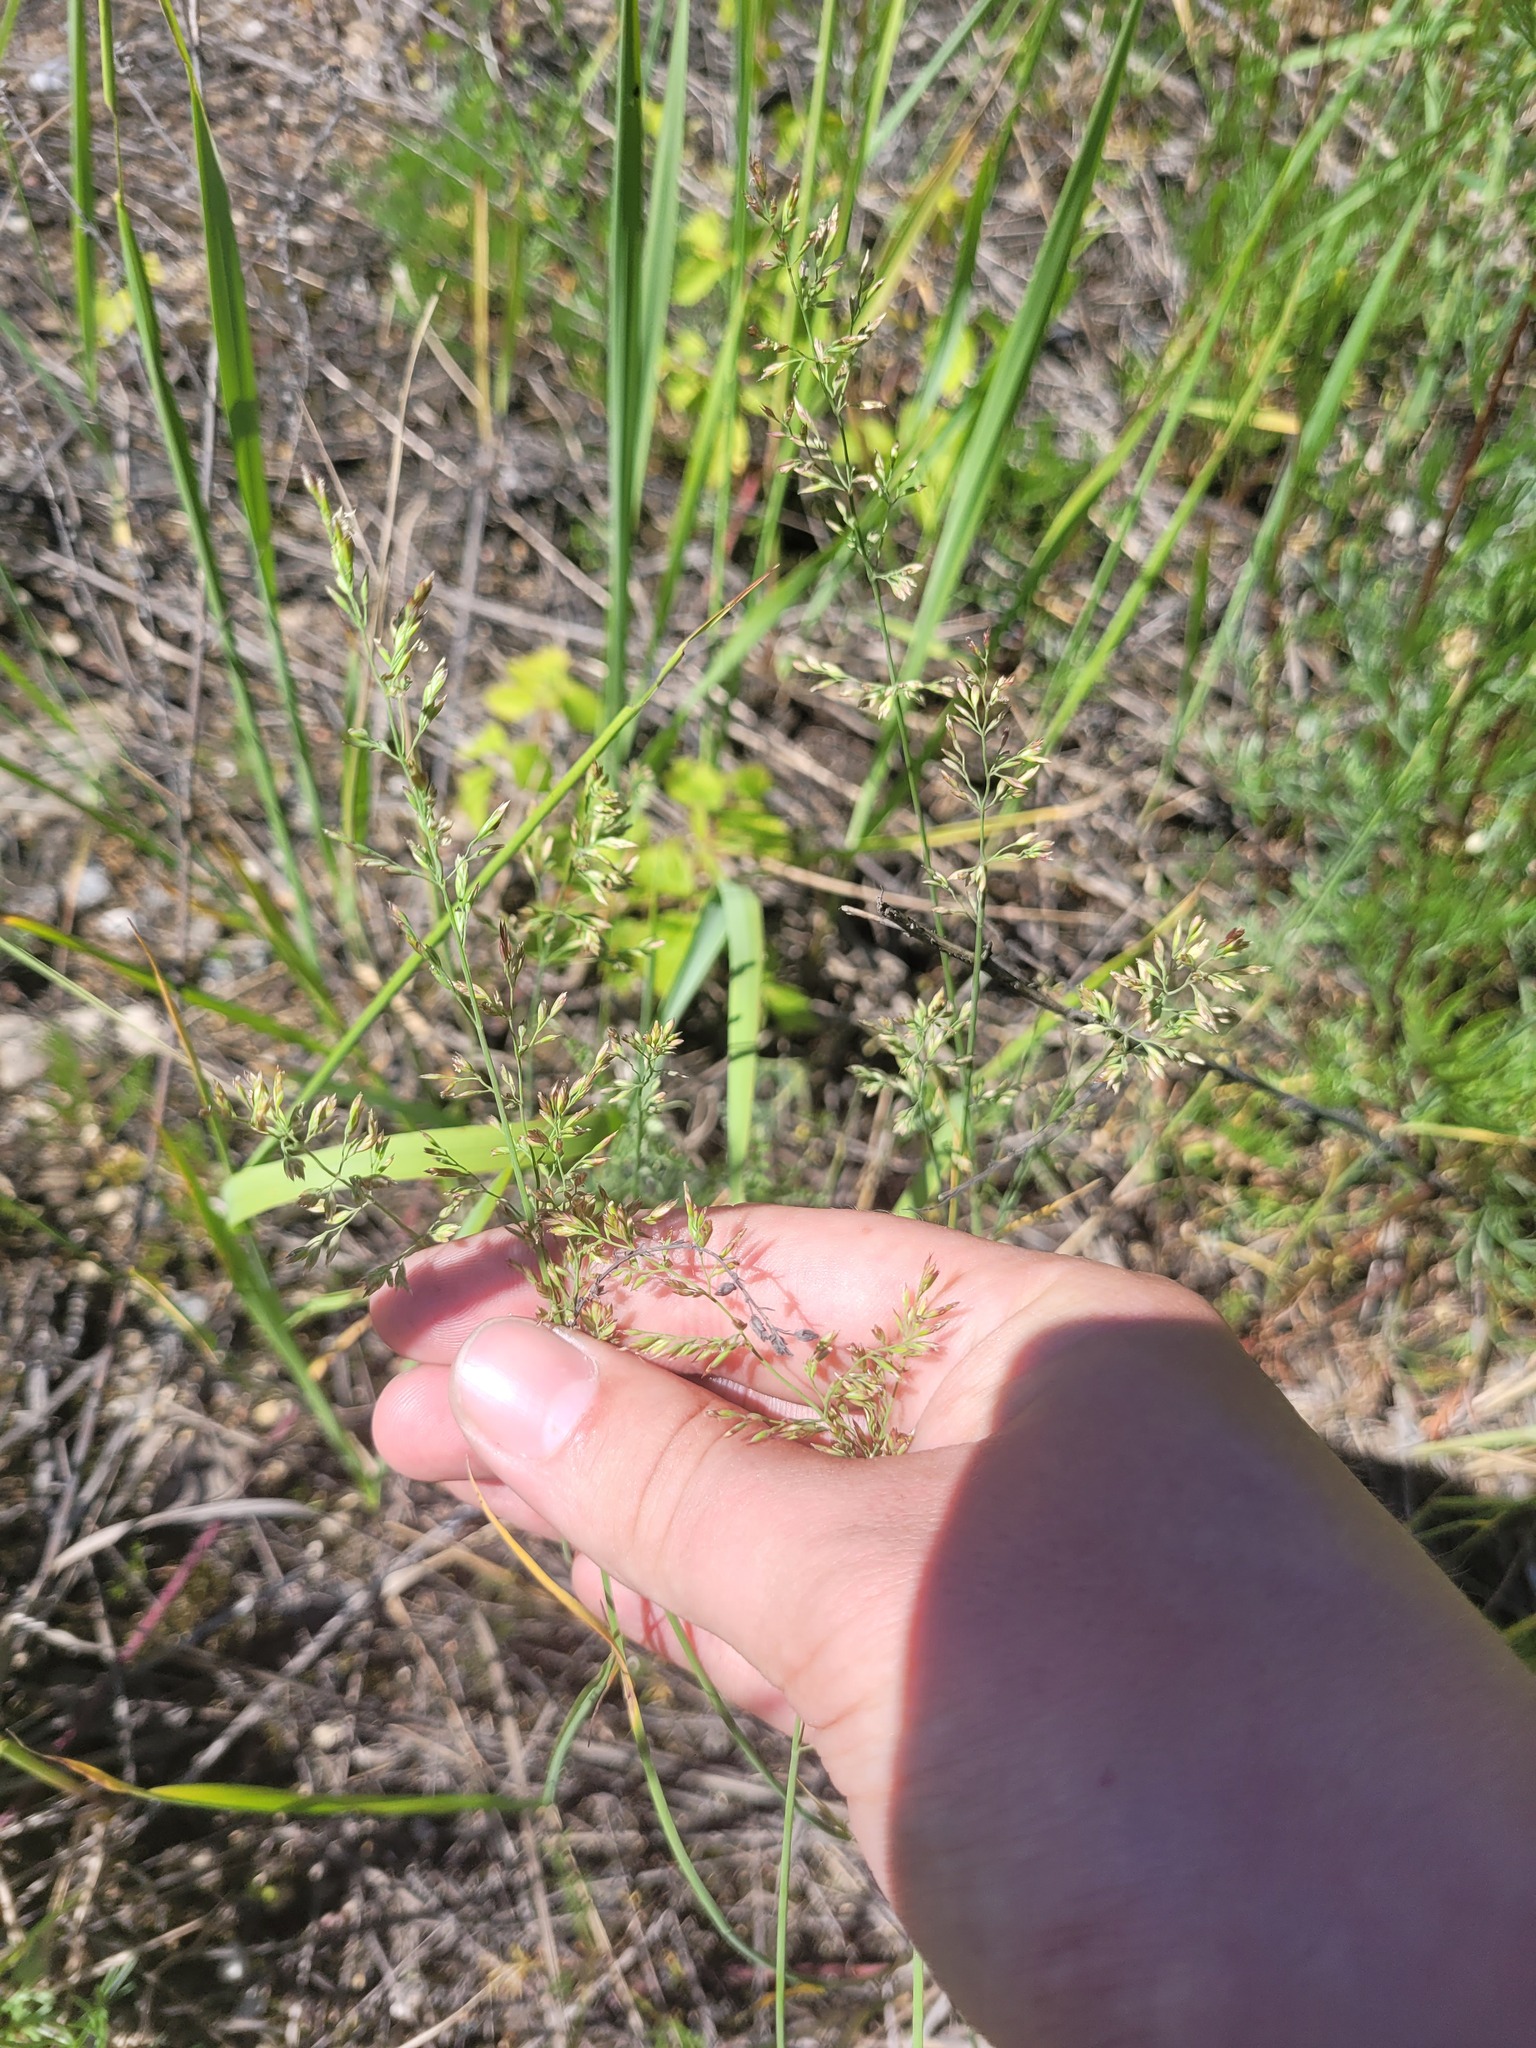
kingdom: Plantae
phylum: Tracheophyta
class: Liliopsida
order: Poales
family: Poaceae
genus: Poa
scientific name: Poa compressa
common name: Canada bluegrass
